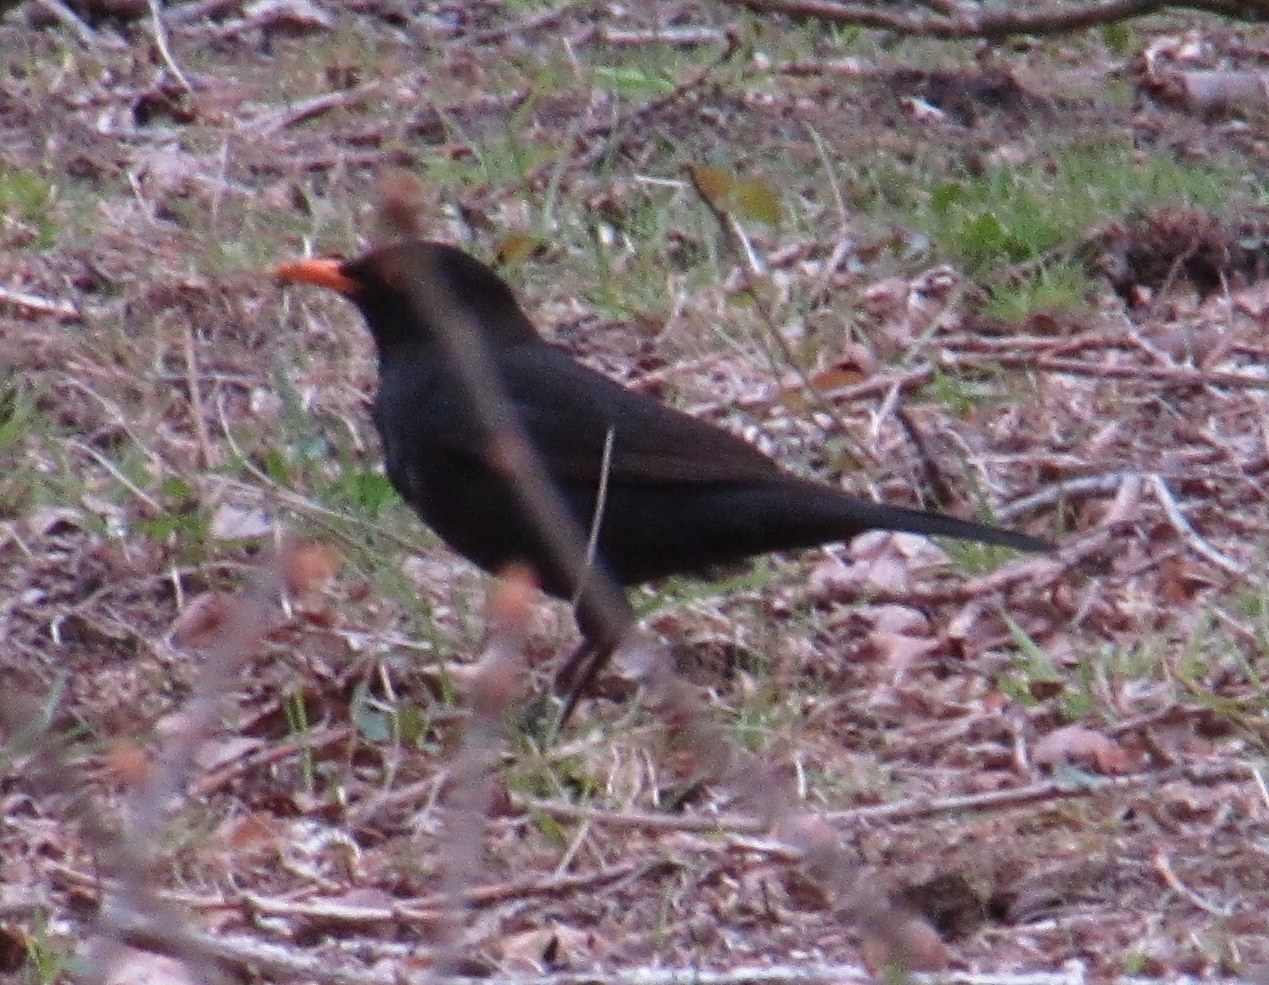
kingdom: Animalia
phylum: Chordata
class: Aves
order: Passeriformes
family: Turdidae
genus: Turdus
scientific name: Turdus merula
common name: Common blackbird
